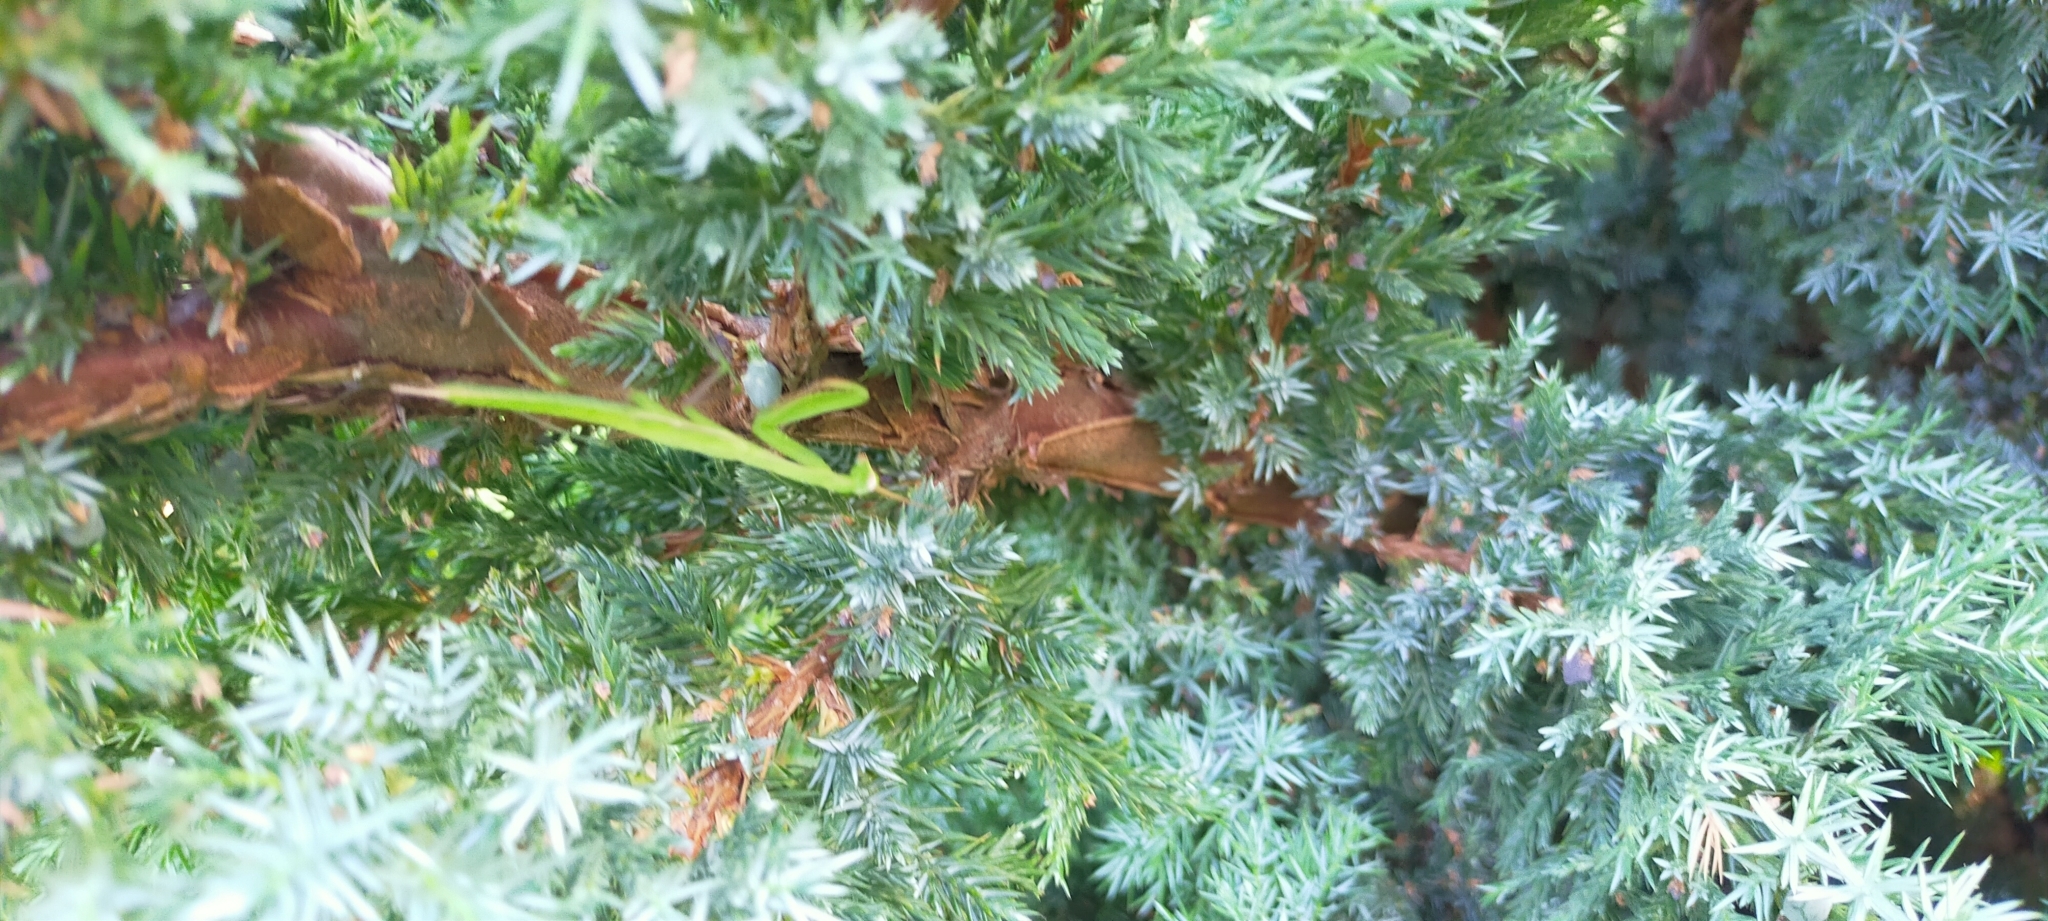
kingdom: Animalia
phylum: Arthropoda
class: Insecta
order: Mantodea
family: Mantidae
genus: Mantis
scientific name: Mantis religiosa
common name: Praying mantis
